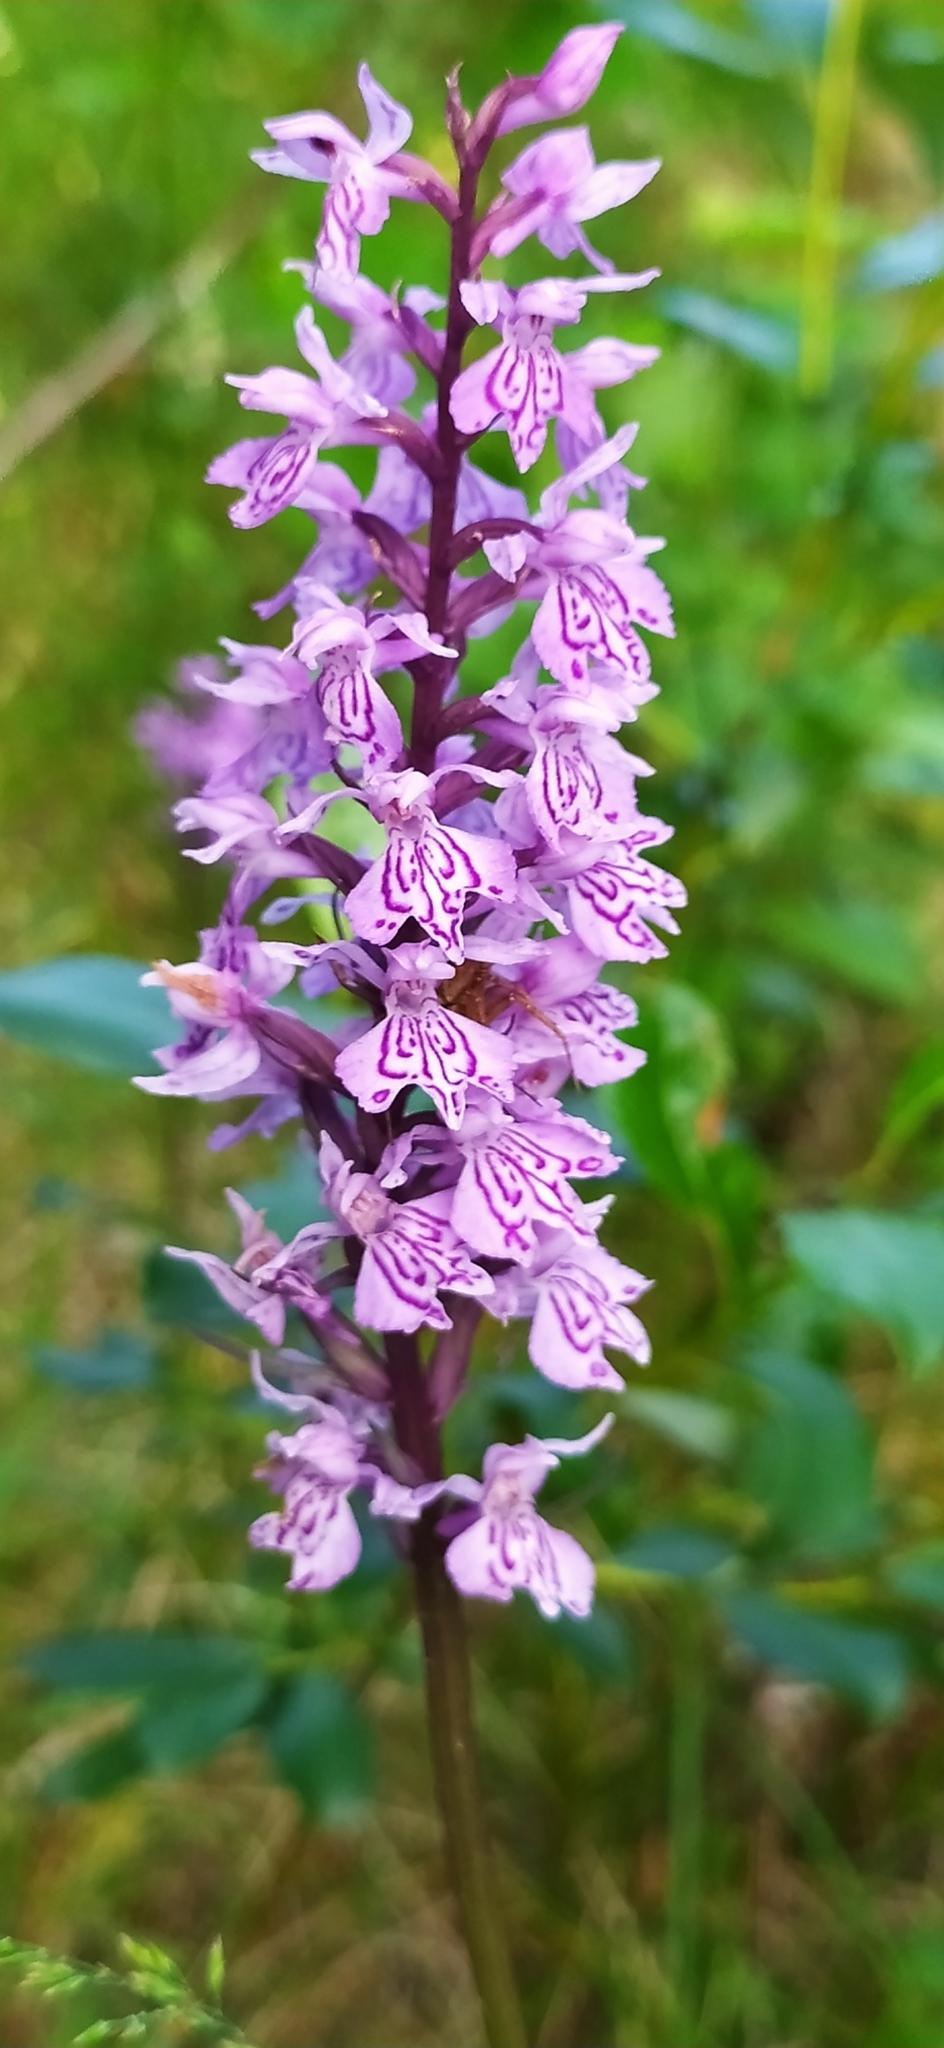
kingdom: Plantae
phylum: Tracheophyta
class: Liliopsida
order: Asparagales
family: Orchidaceae
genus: Dactylorhiza
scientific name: Dactylorhiza maculata
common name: Heath spotted-orchid
